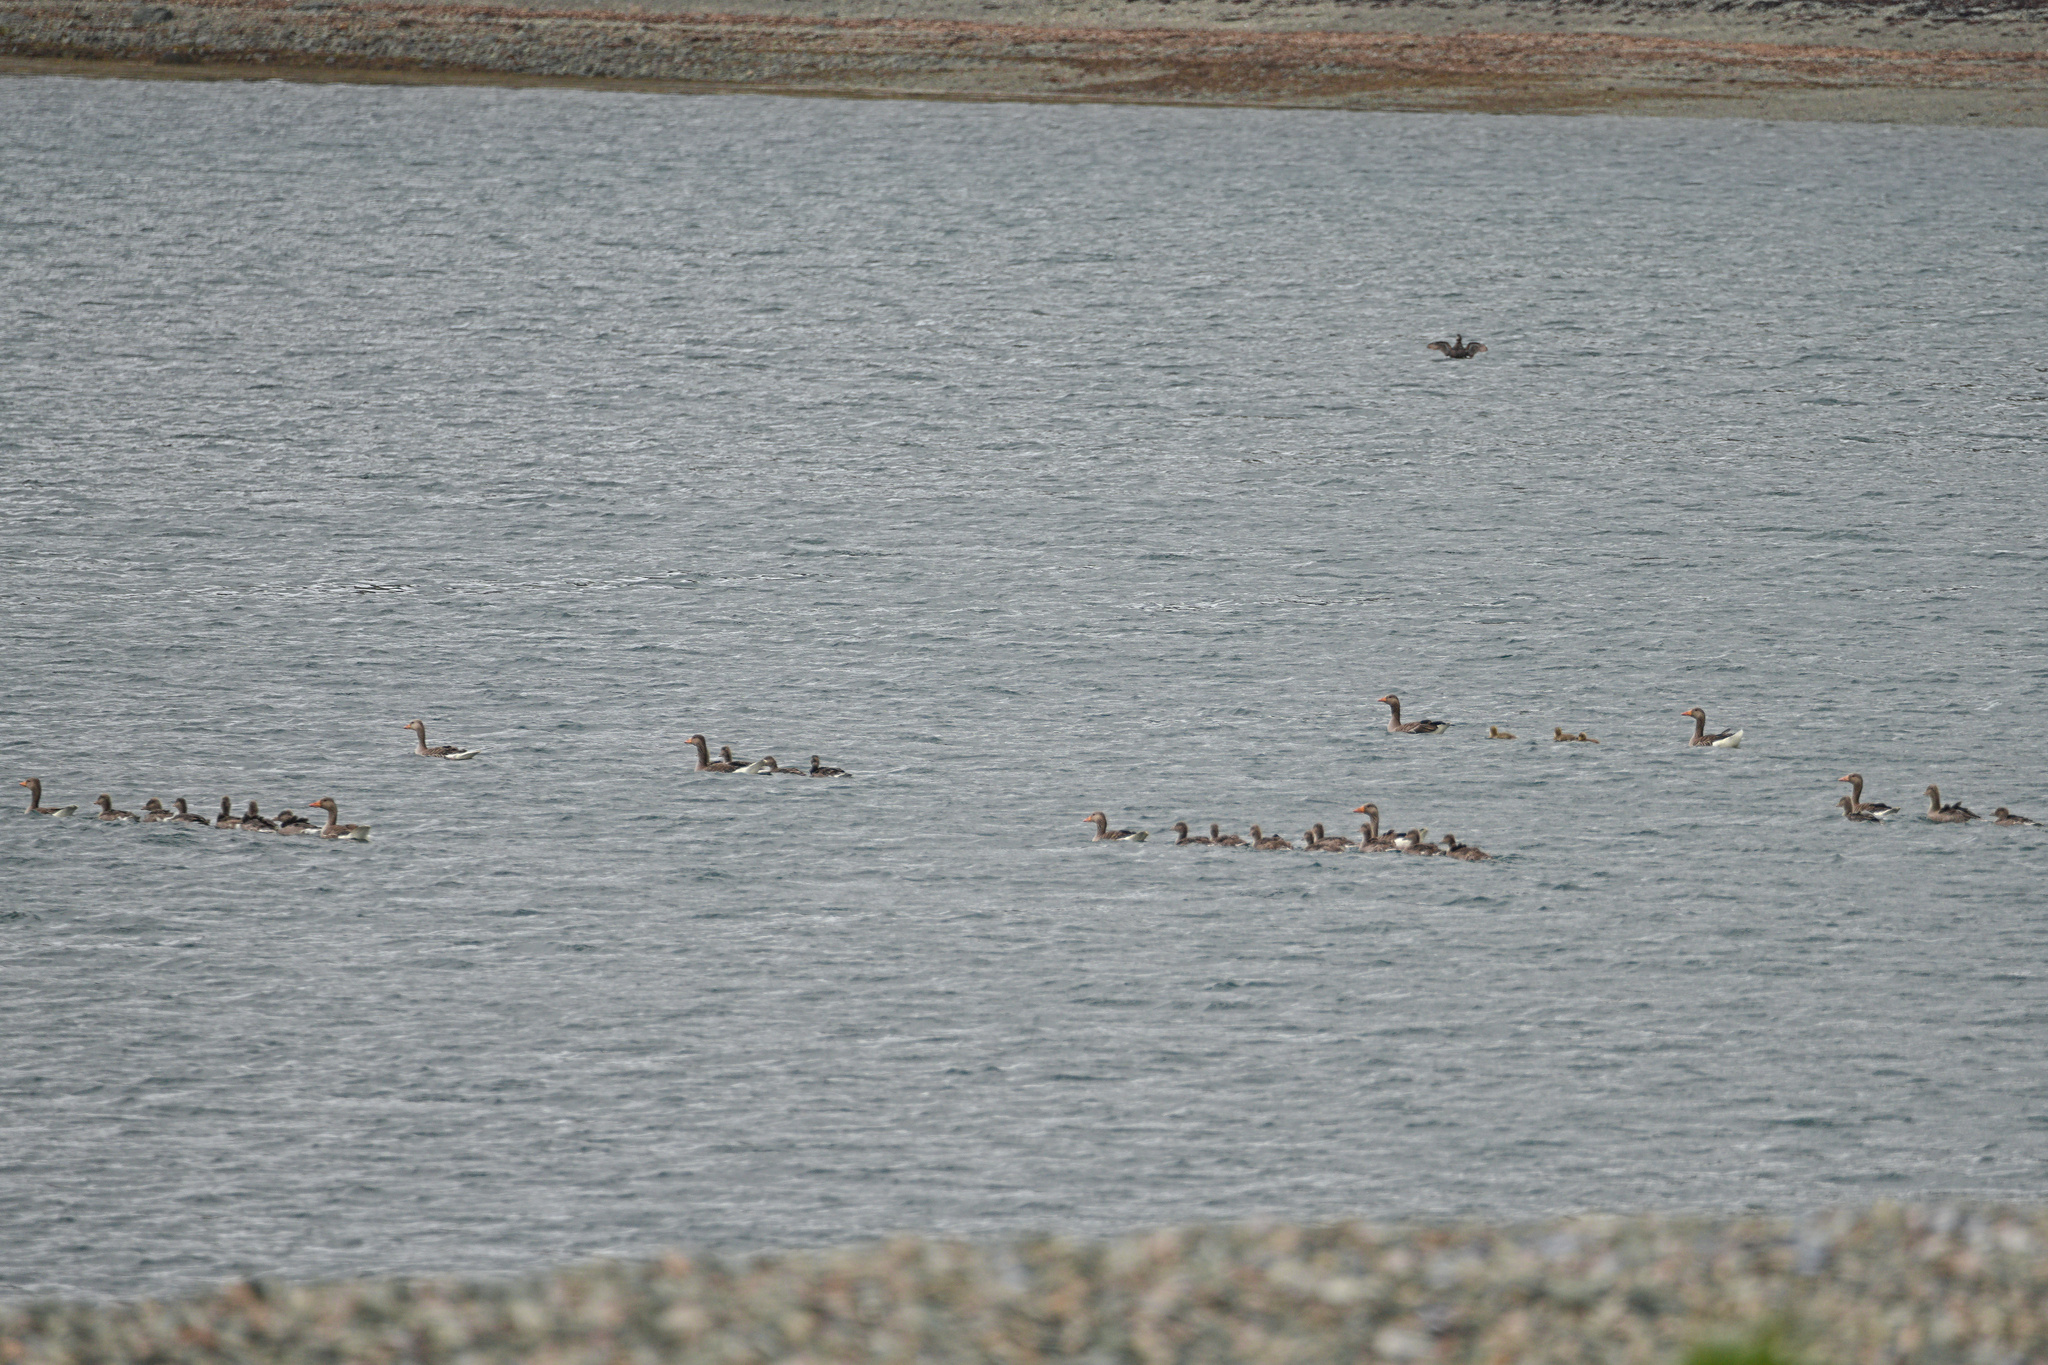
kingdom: Animalia
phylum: Chordata
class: Aves
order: Anseriformes
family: Anatidae
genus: Anser
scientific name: Anser anser
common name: Greylag goose
